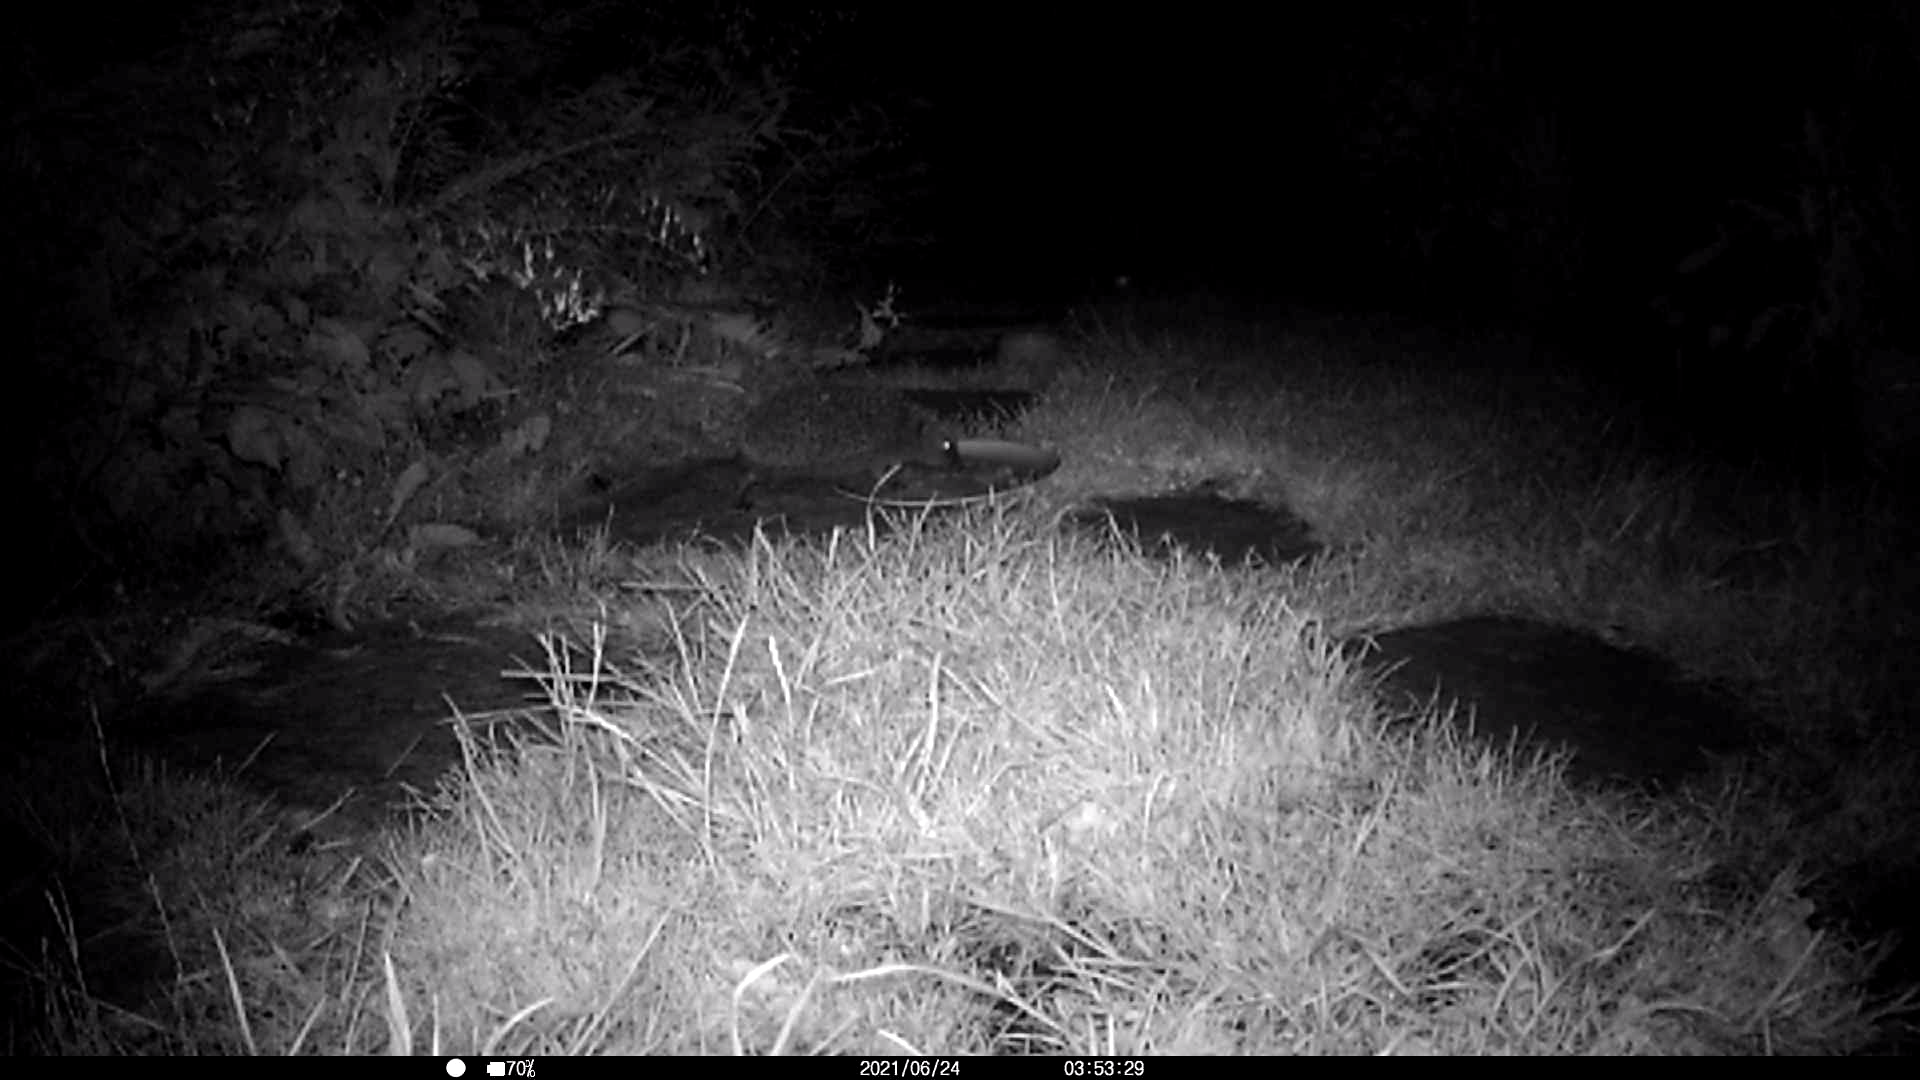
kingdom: Animalia
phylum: Chordata
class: Mammalia
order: Erinaceomorpha
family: Erinaceidae
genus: Erinaceus
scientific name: Erinaceus europaeus
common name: West european hedgehog
